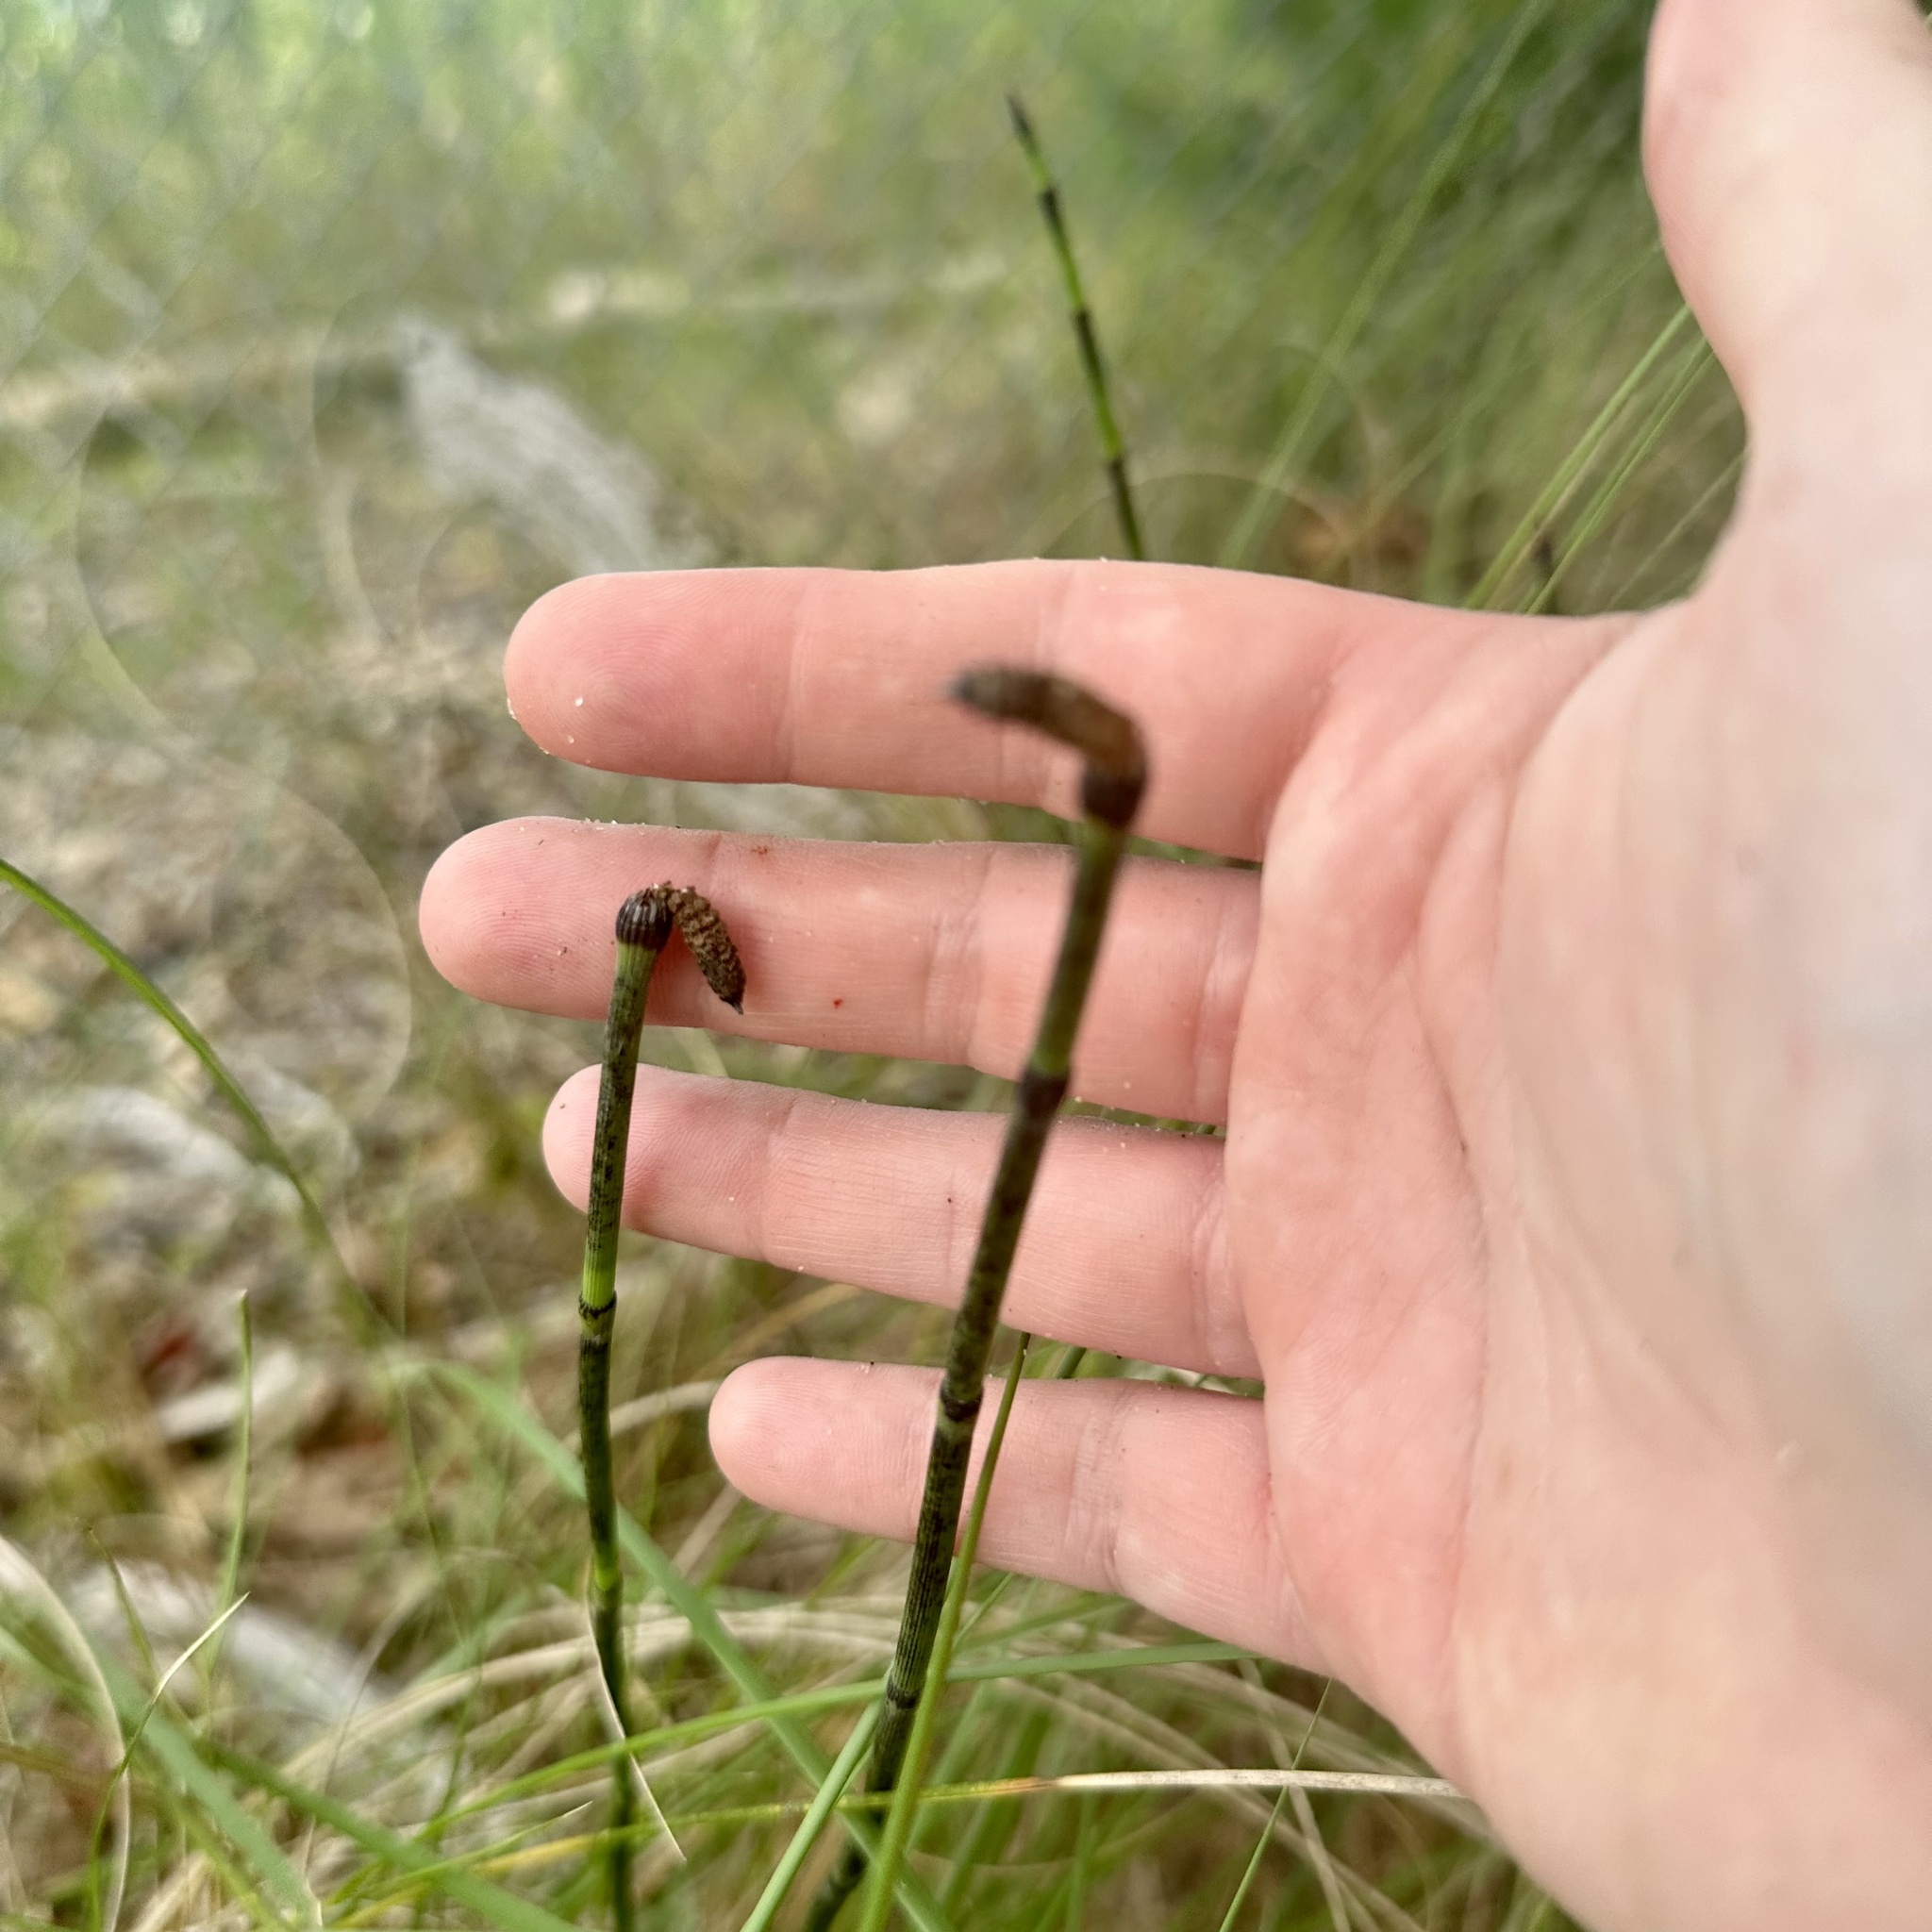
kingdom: Plantae
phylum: Tracheophyta
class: Polypodiopsida
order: Equisetales
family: Equisetaceae
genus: Equisetum
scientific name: Equisetum praealtum
